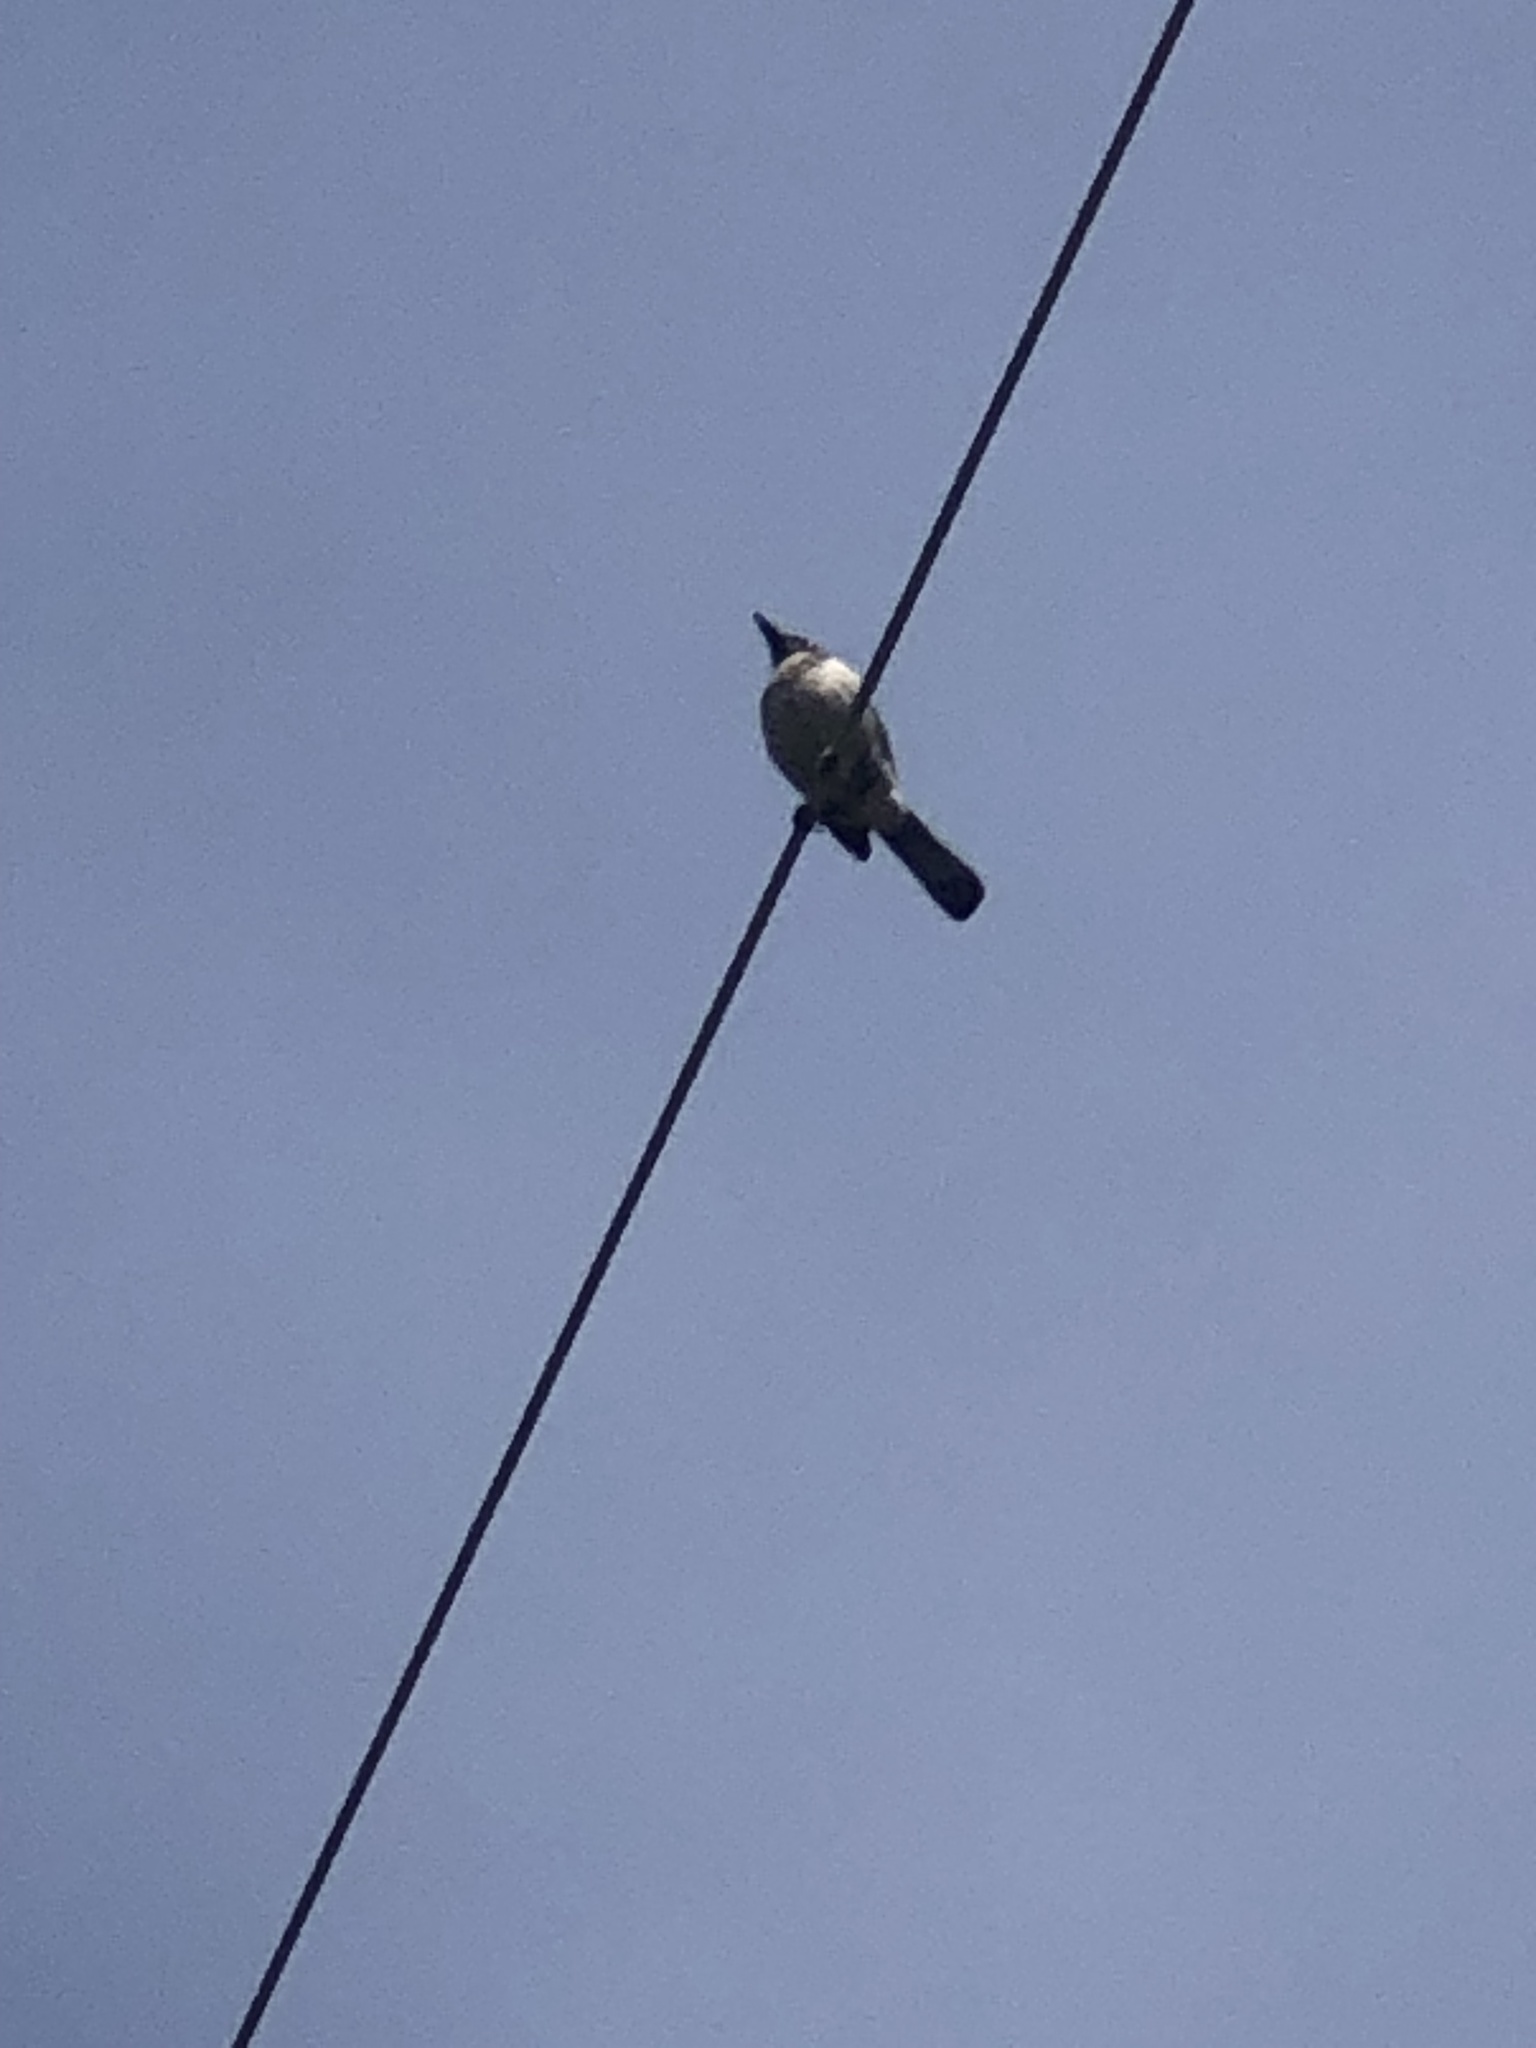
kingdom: Animalia
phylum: Chordata
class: Aves
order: Passeriformes
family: Corvidae
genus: Aphelocoma
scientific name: Aphelocoma californica
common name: California scrub-jay
